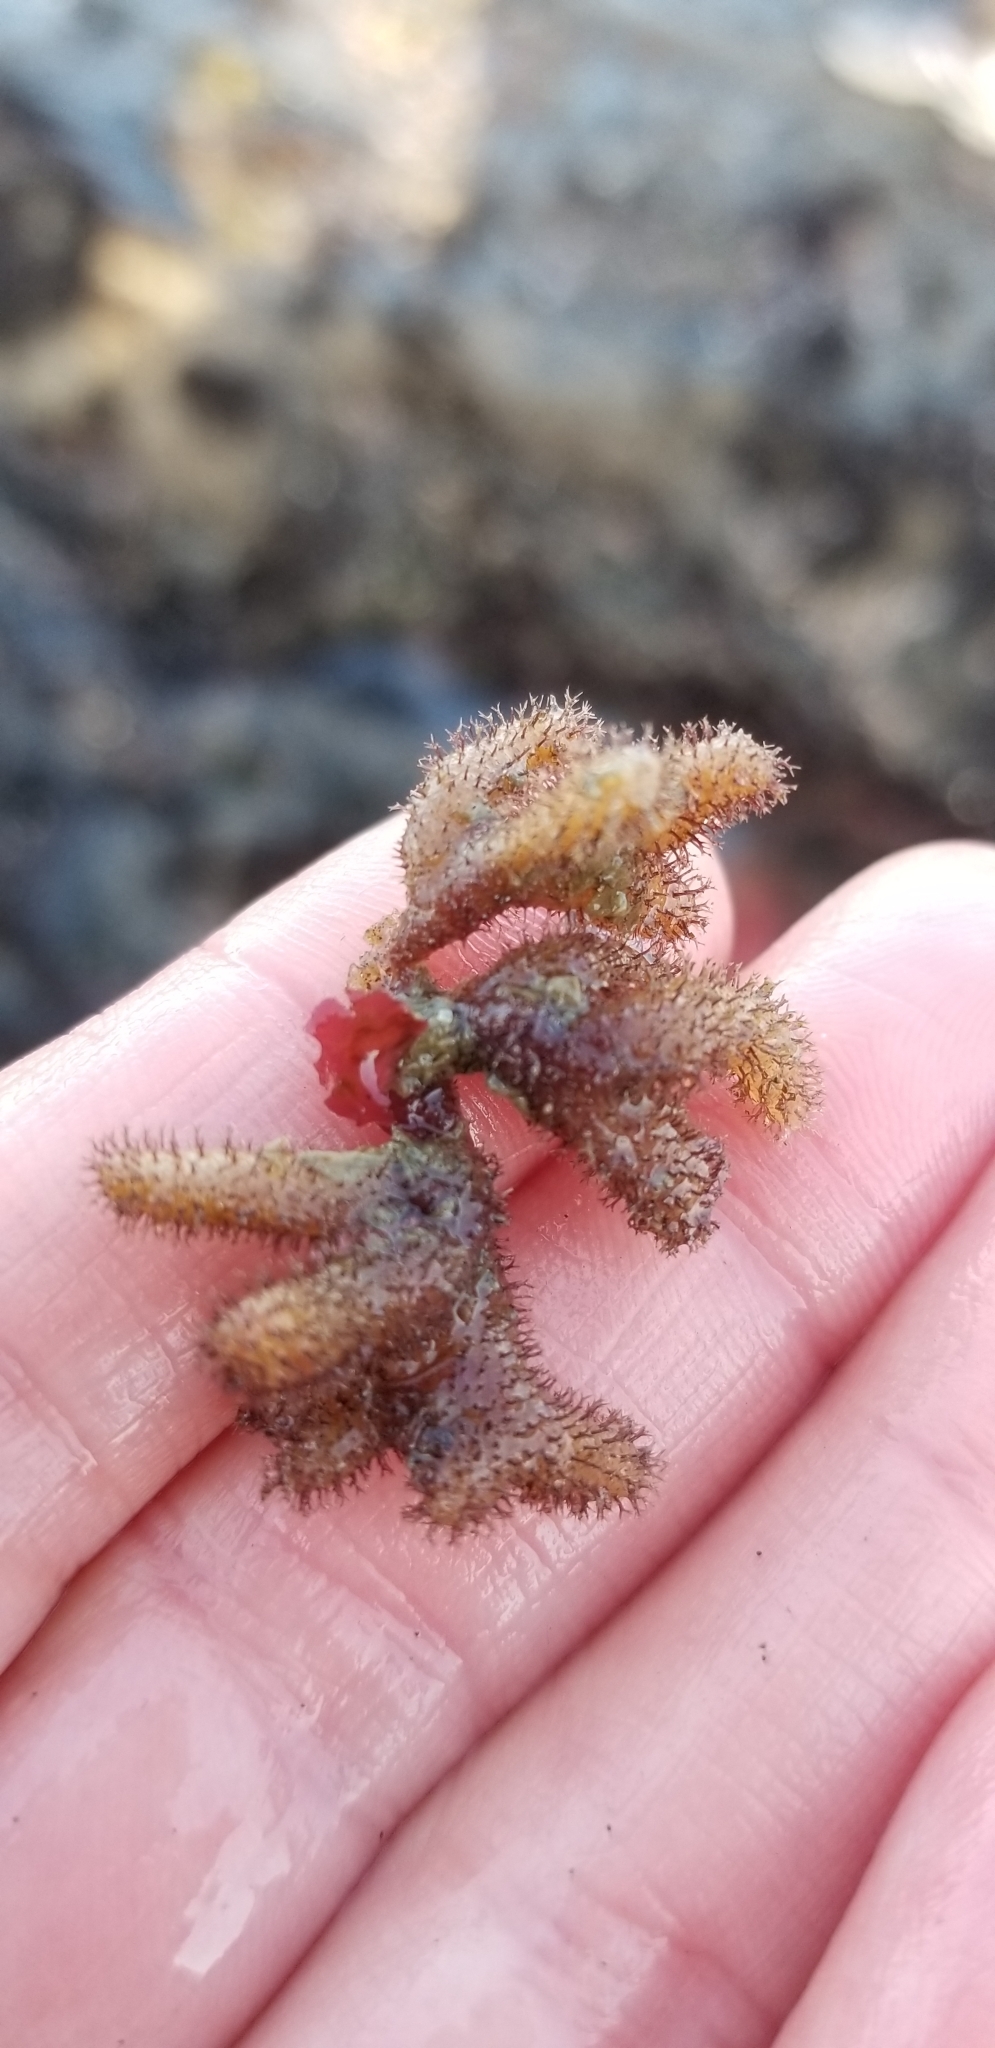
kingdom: Animalia
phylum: Bryozoa
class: Gymnolaemata
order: Ctenostomatida
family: Flustrellidridae
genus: Flustrellidra
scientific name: Flustrellidra corniculata
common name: Spiny leather bryozoan
